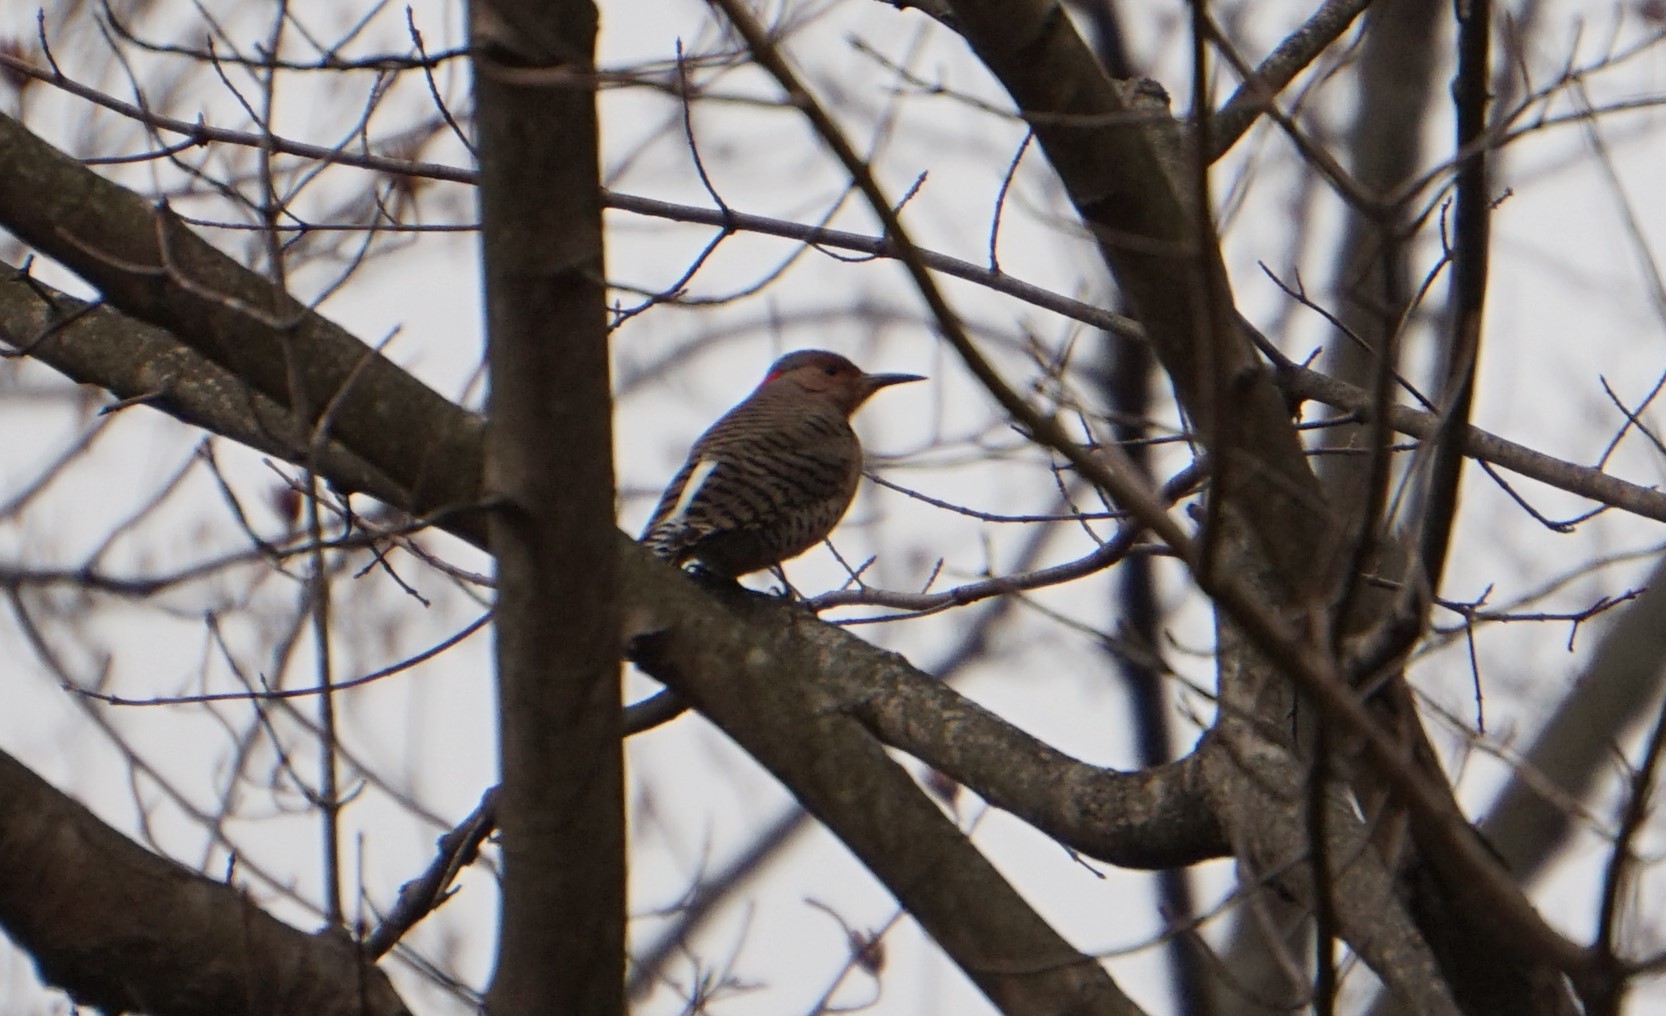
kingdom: Animalia
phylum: Chordata
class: Aves
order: Piciformes
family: Picidae
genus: Colaptes
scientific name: Colaptes auratus
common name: Northern flicker
